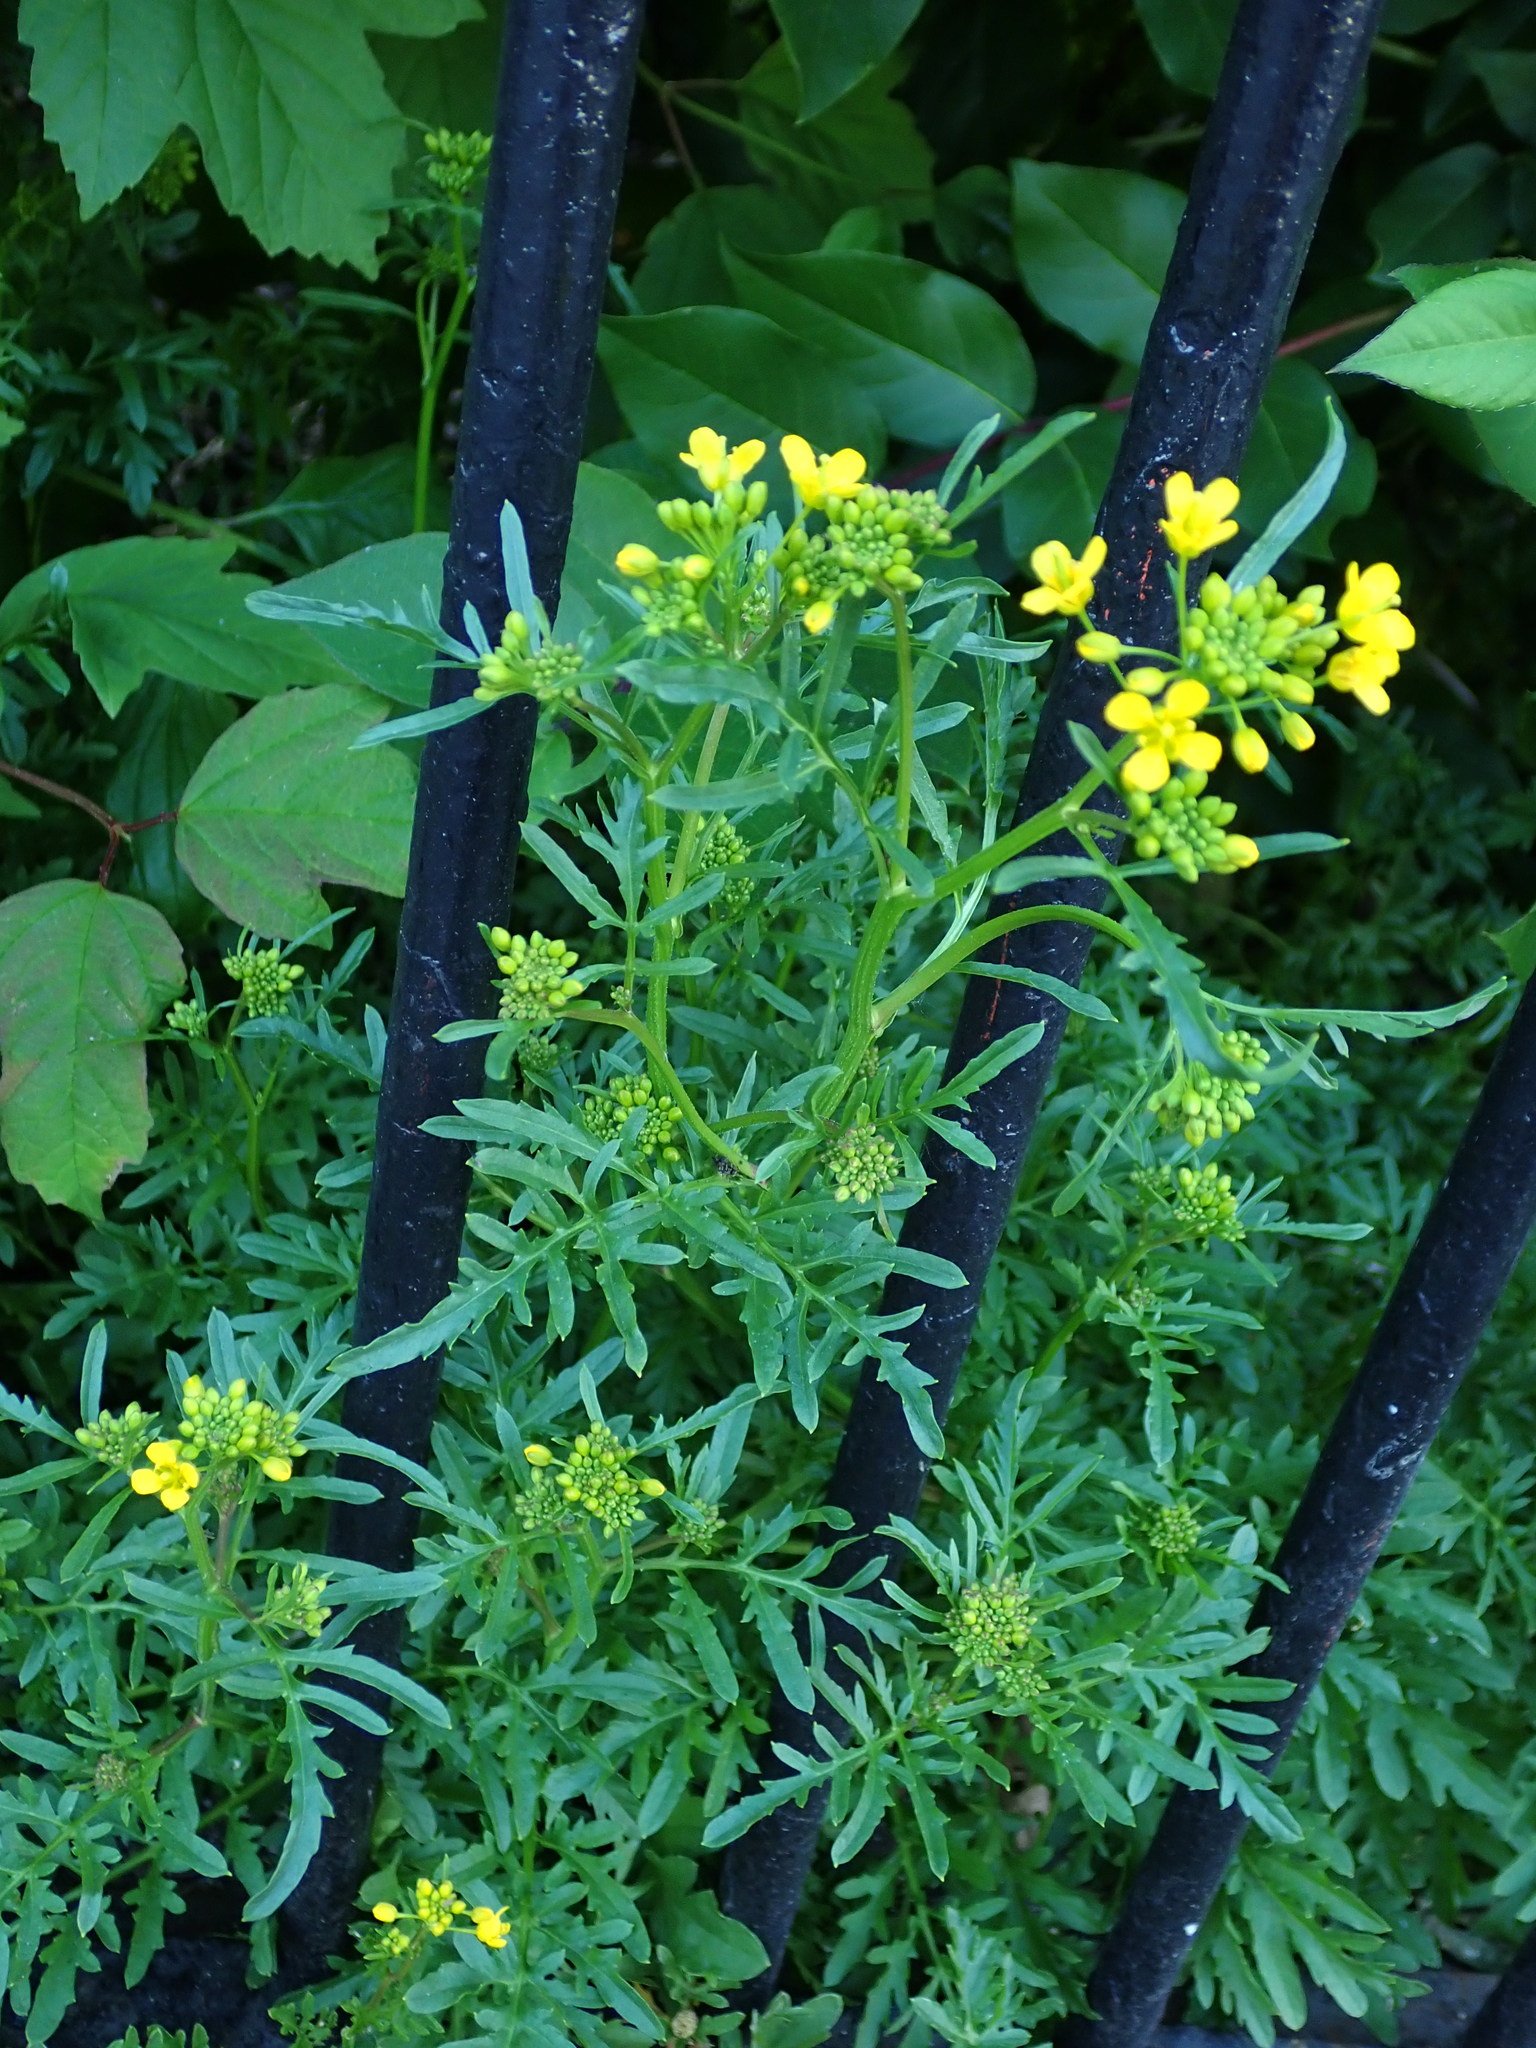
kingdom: Plantae
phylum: Tracheophyta
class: Magnoliopsida
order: Brassicales
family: Brassicaceae
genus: Rorippa
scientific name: Rorippa sylvestris
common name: Creeping yellowcress
